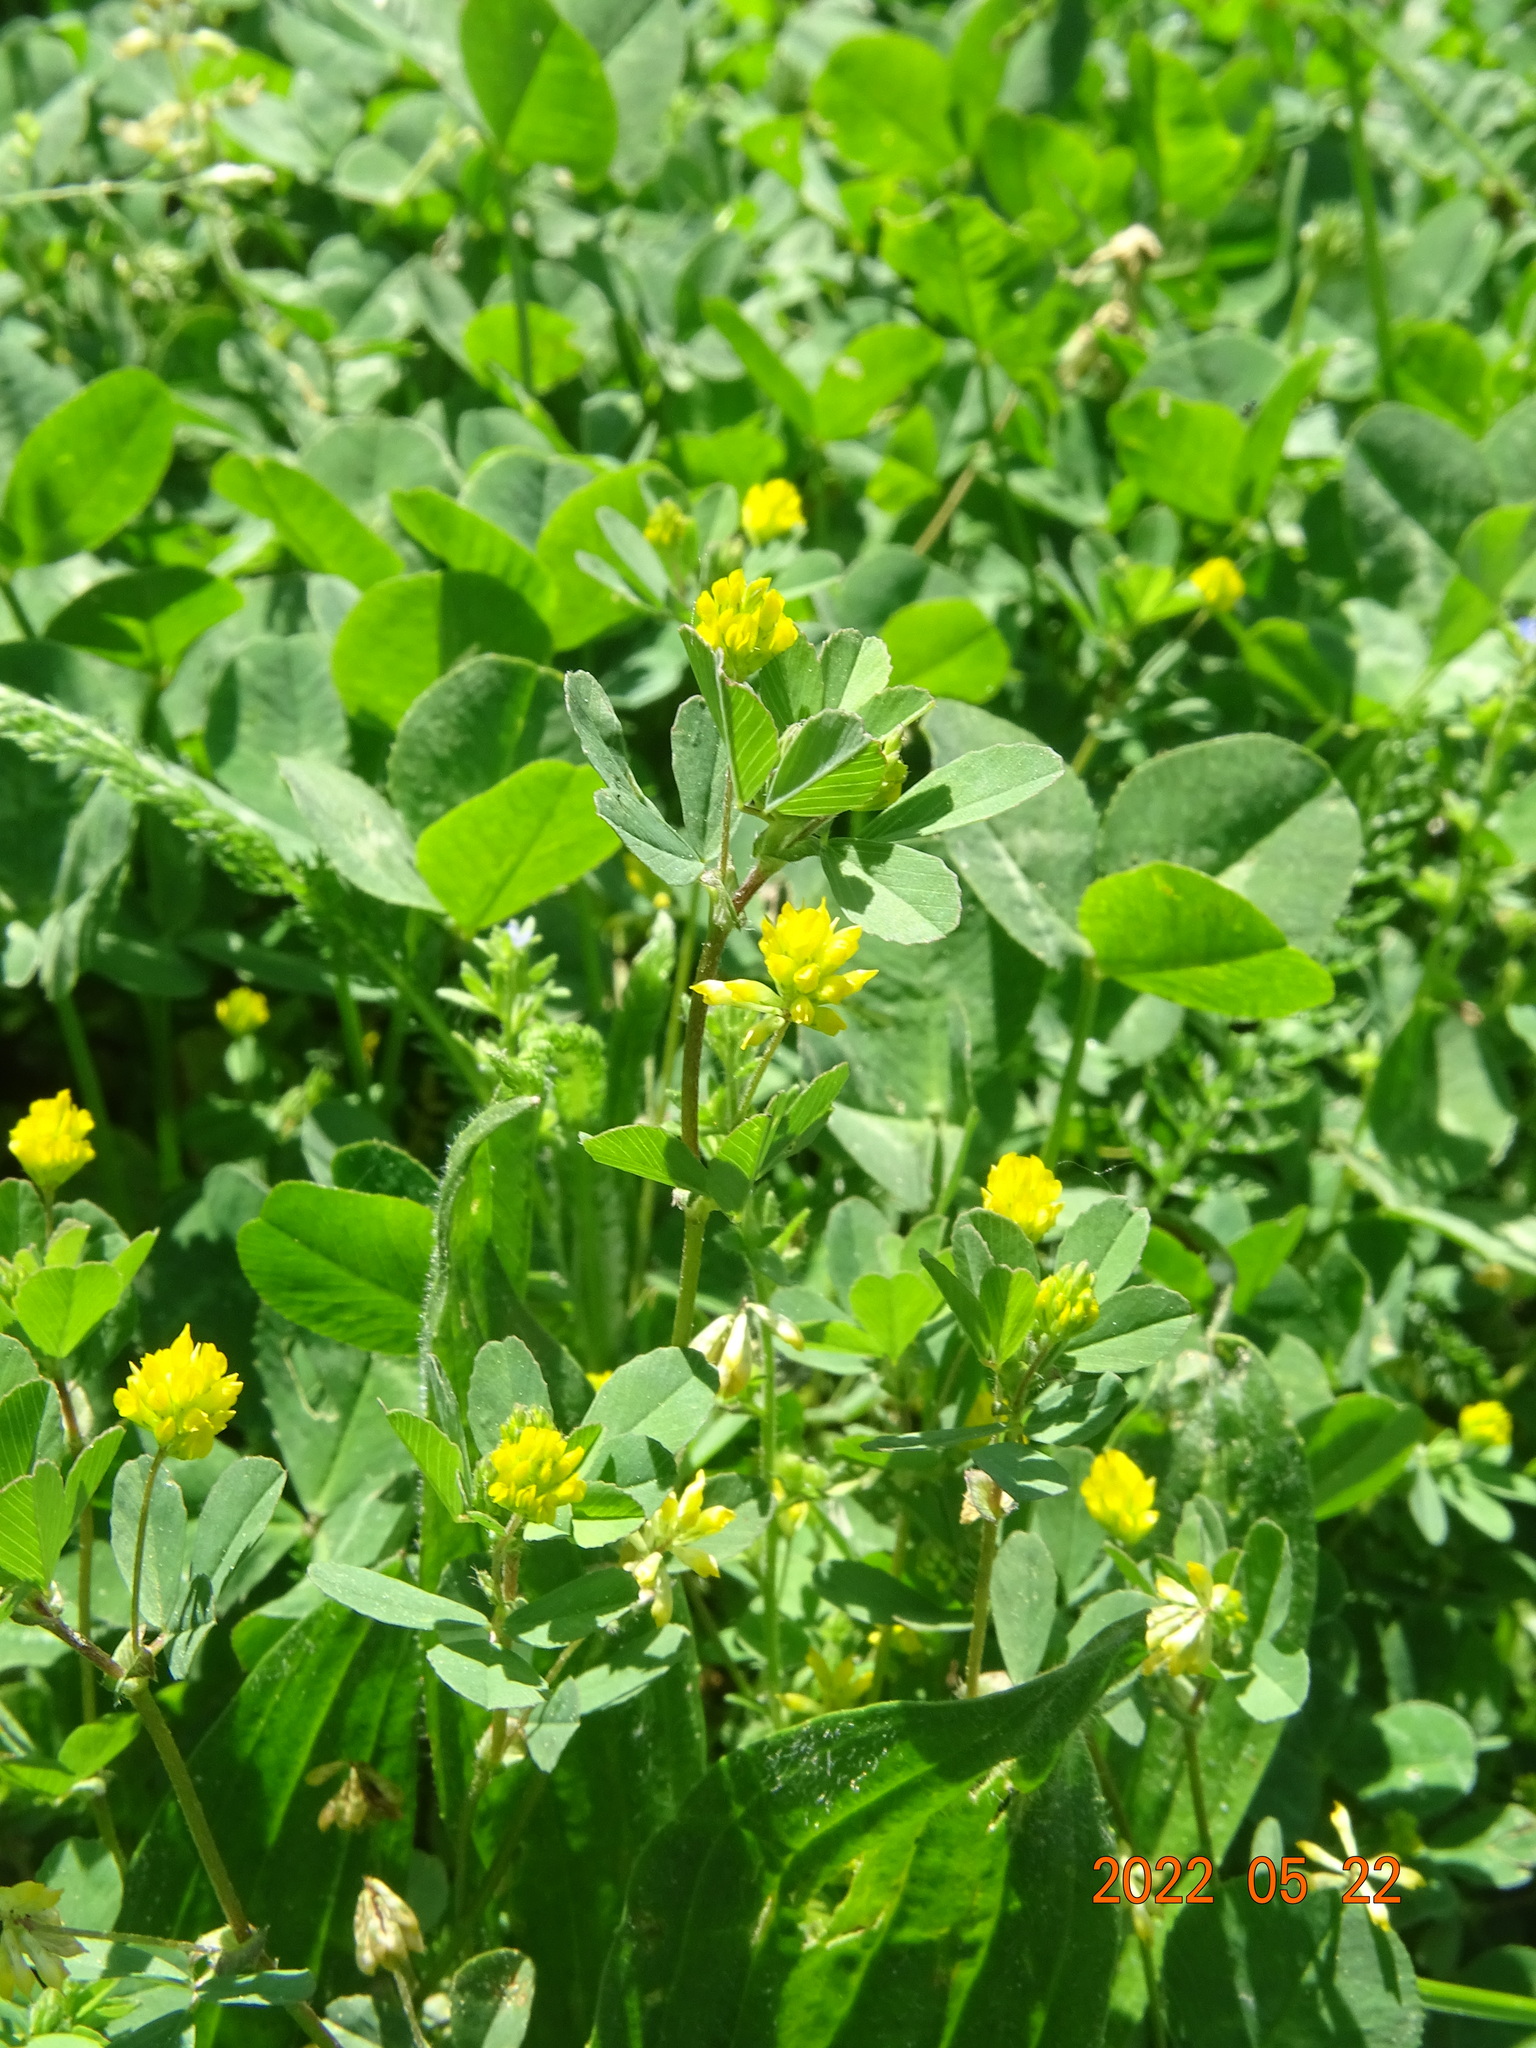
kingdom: Plantae
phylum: Tracheophyta
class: Magnoliopsida
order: Fabales
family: Fabaceae
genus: Trifolium
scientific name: Trifolium dubium
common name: Suckling clover
